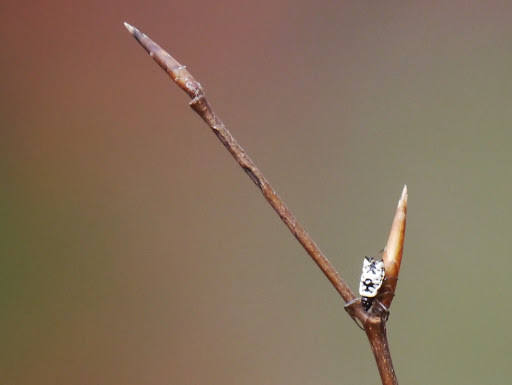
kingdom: Animalia
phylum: Arthropoda
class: Arachnida
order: Araneae
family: Araneidae
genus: Micrathena
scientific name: Micrathena mitrata
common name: Orb weavers
